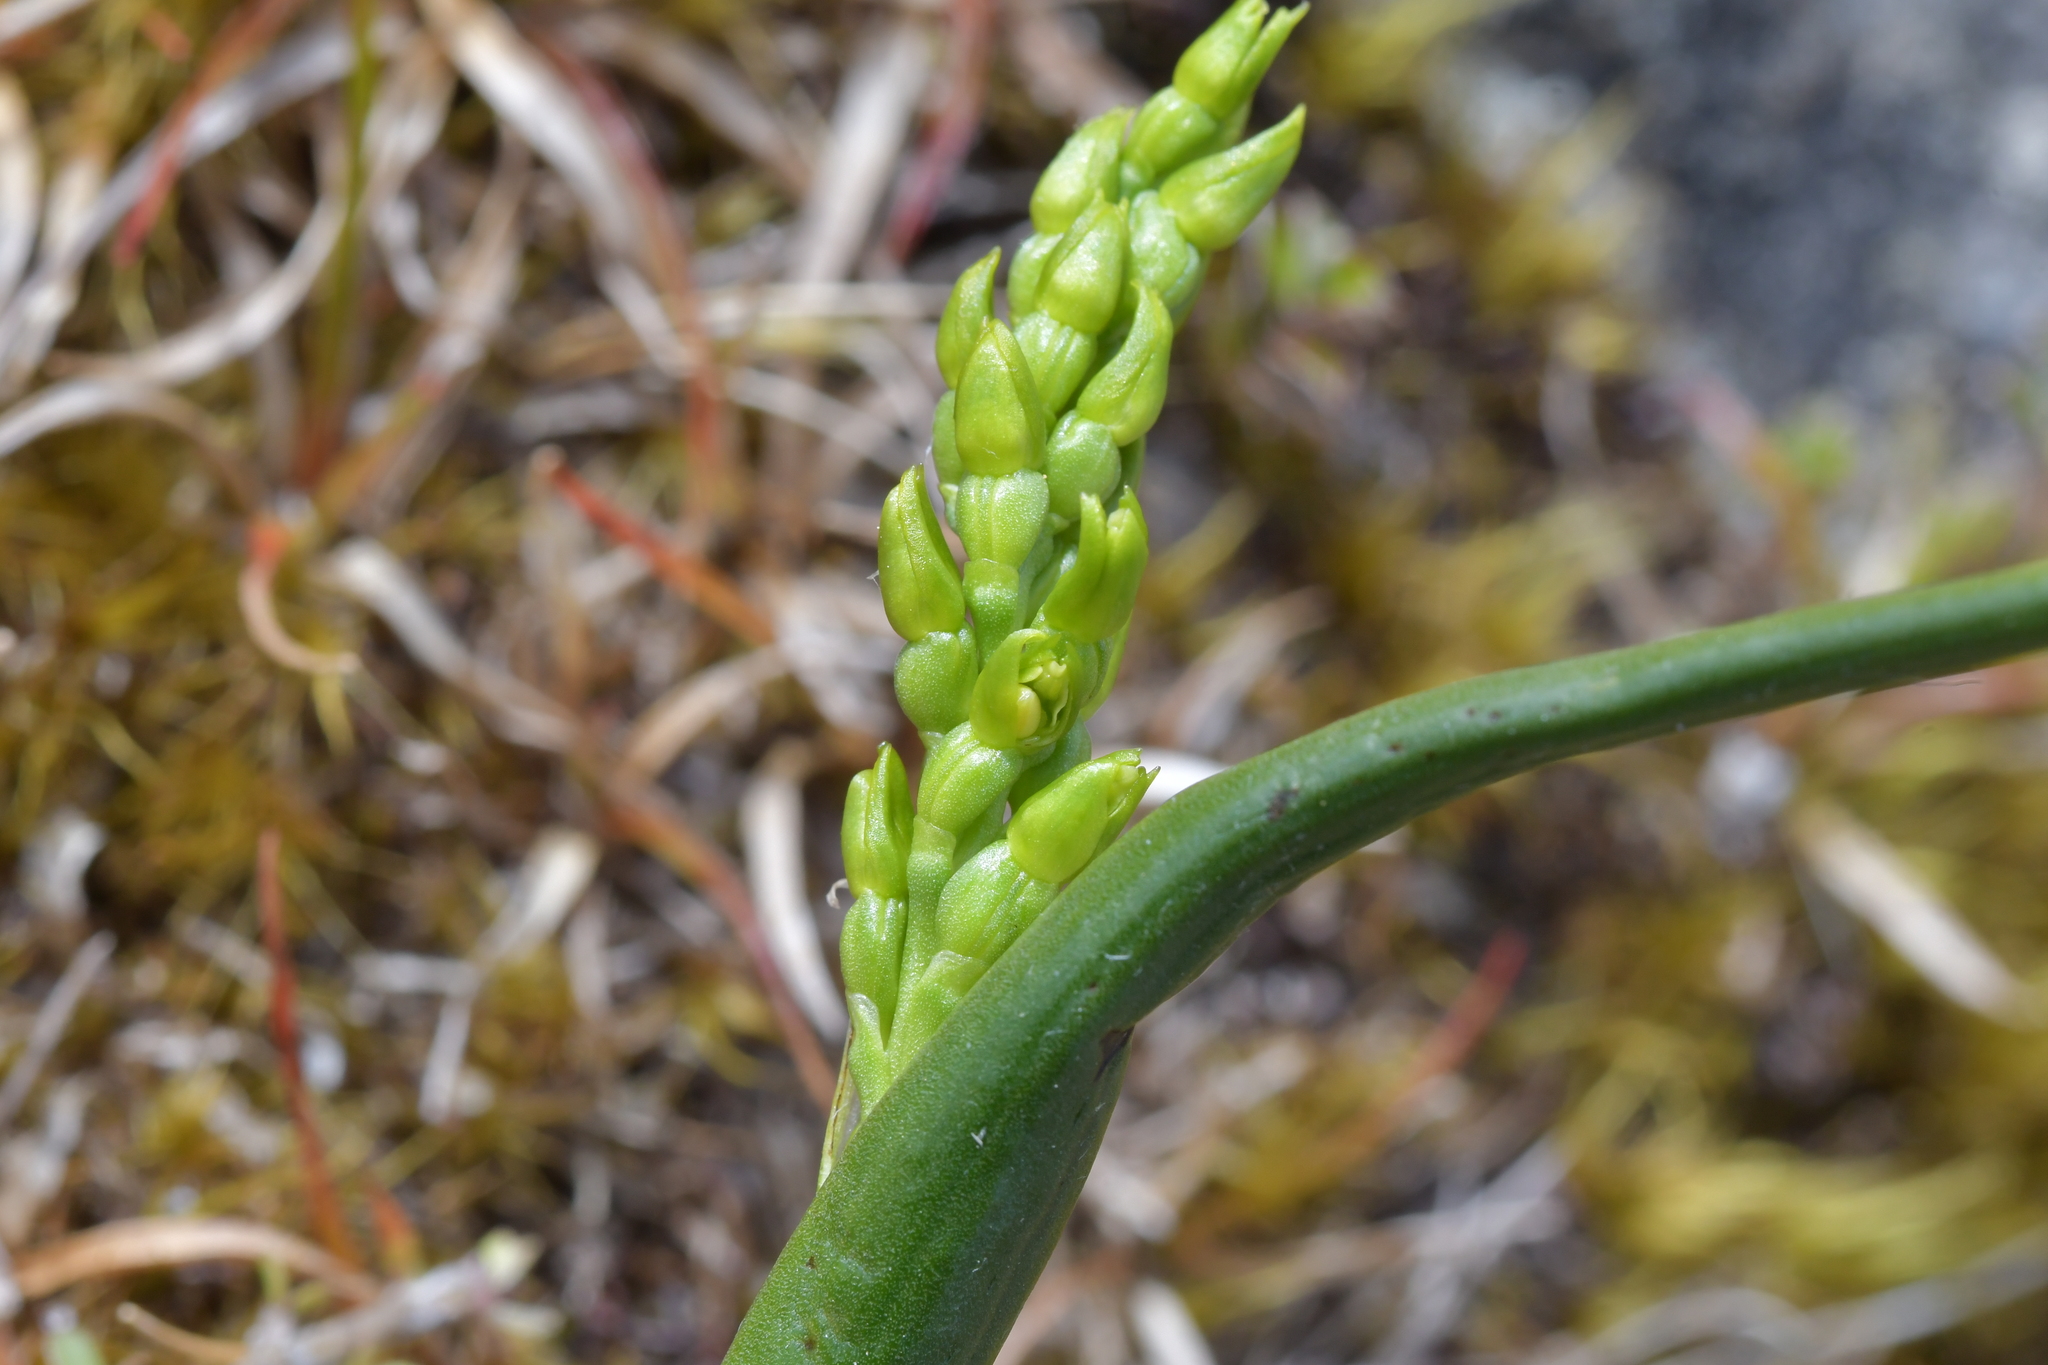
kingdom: Plantae
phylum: Tracheophyta
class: Liliopsida
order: Asparagales
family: Orchidaceae
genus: Prasophyllum
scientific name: Prasophyllum colensoi
